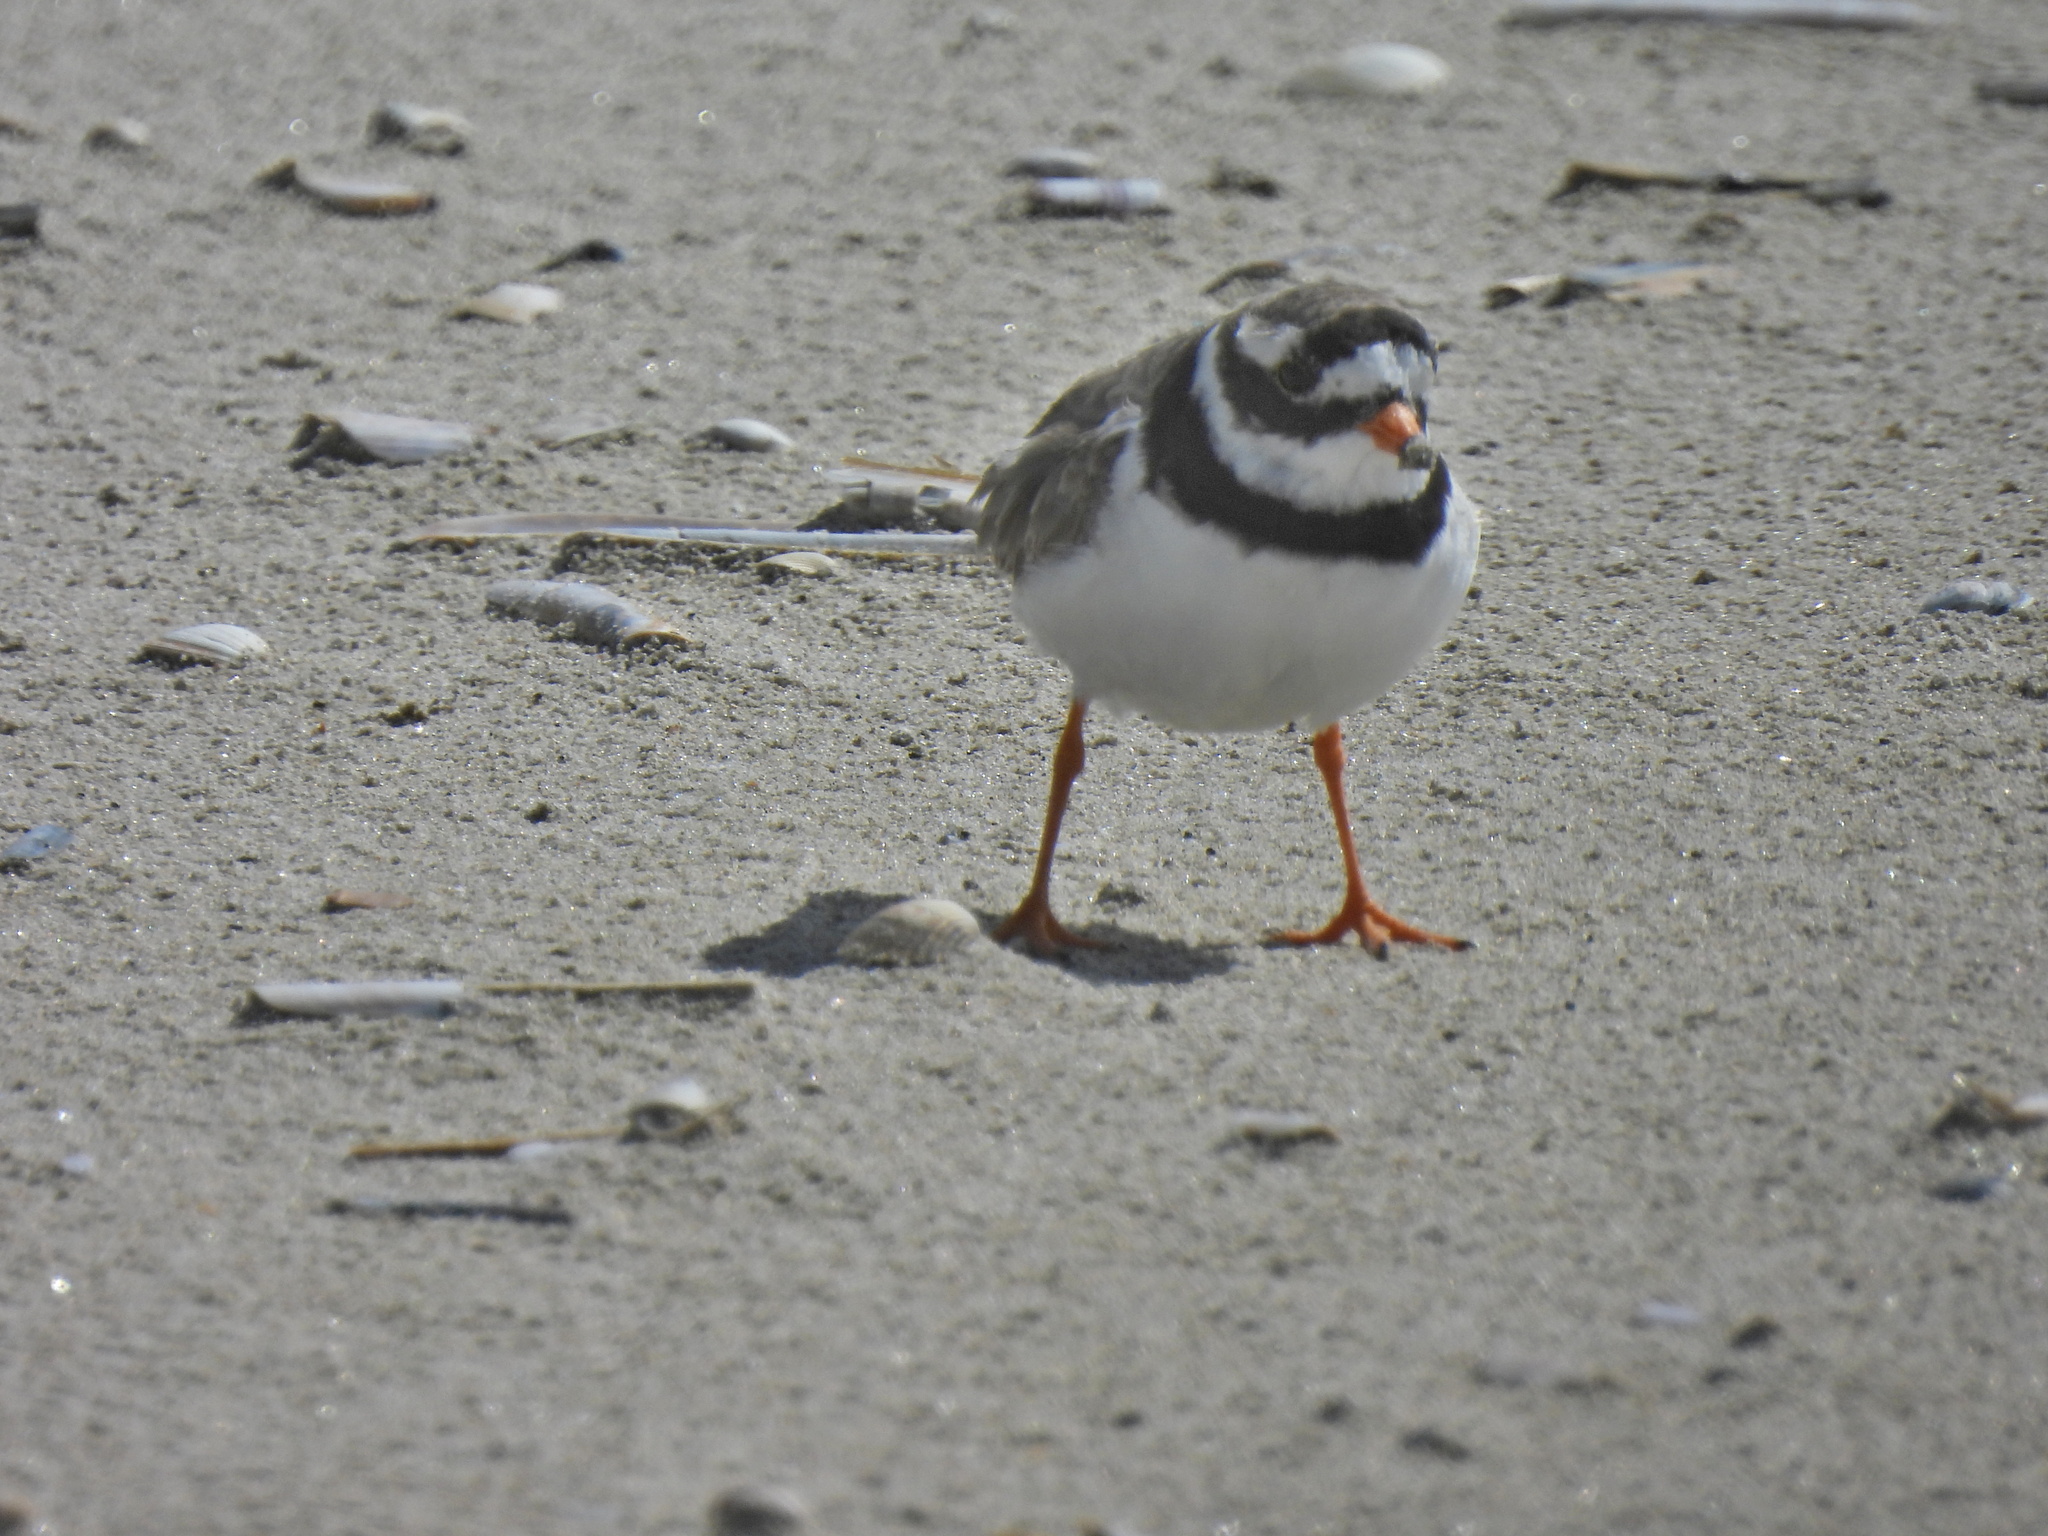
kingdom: Animalia
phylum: Chordata
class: Aves
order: Charadriiformes
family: Charadriidae
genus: Charadrius
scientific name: Charadrius hiaticula
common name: Common ringed plover
